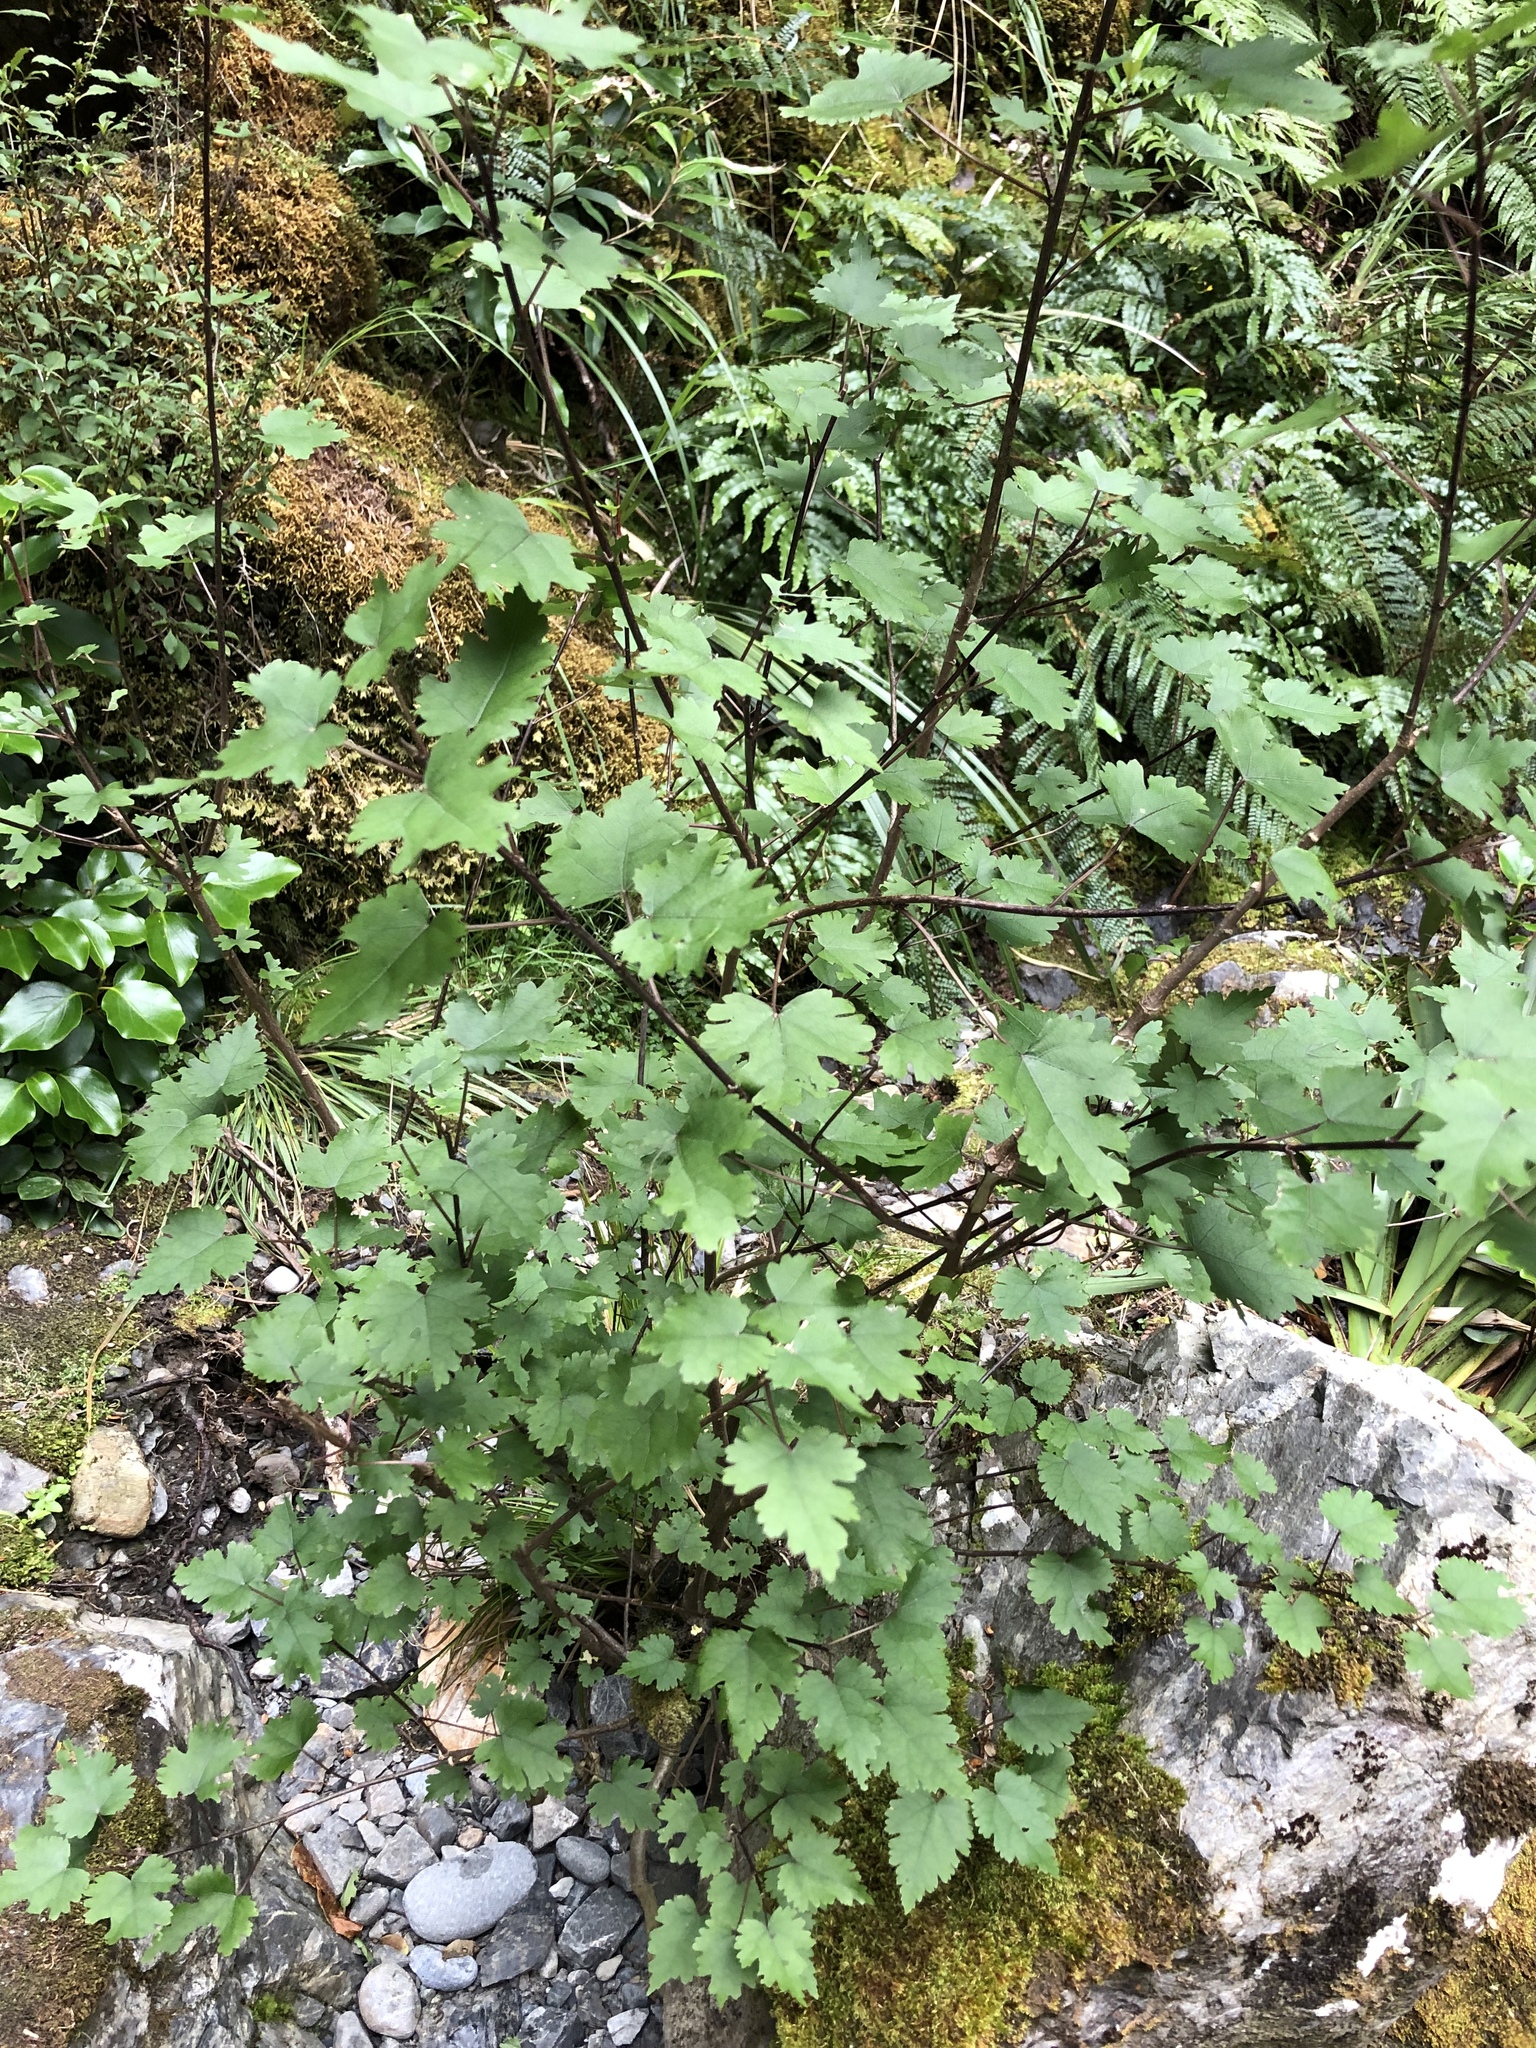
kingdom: Plantae
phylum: Tracheophyta
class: Magnoliopsida
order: Malvales
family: Malvaceae
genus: Hoheria
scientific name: Hoheria lyallii
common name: Lacebark
